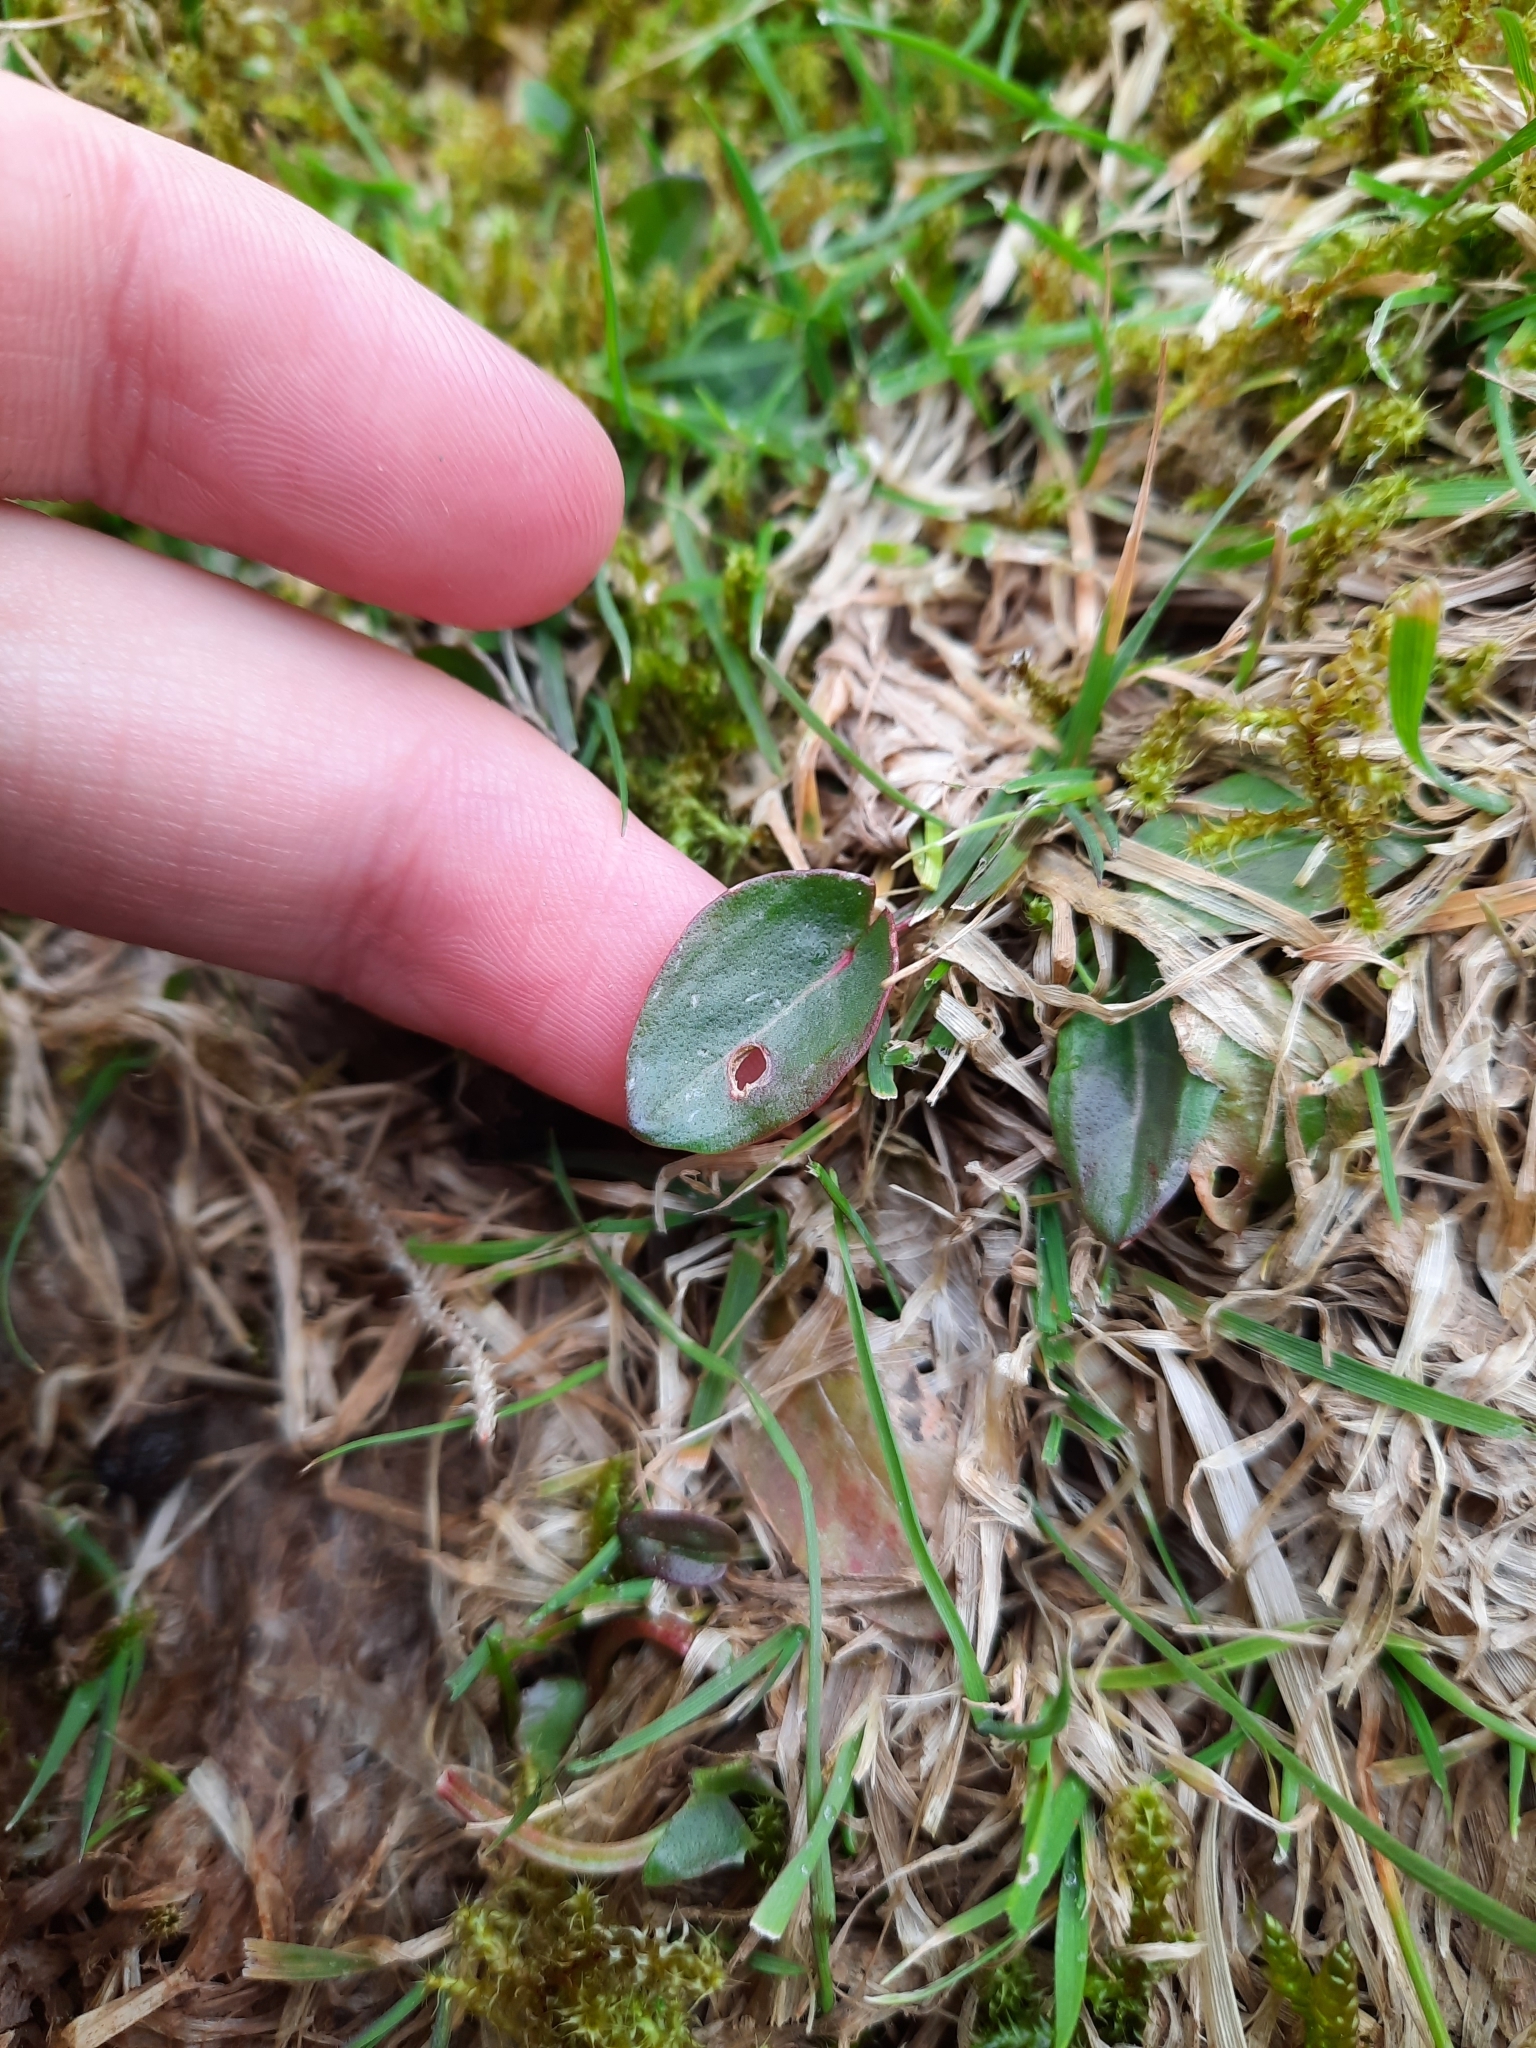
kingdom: Plantae
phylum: Tracheophyta
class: Magnoliopsida
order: Caryophyllales
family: Polygonaceae
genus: Rumex
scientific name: Rumex acetosa
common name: Garden sorrel
